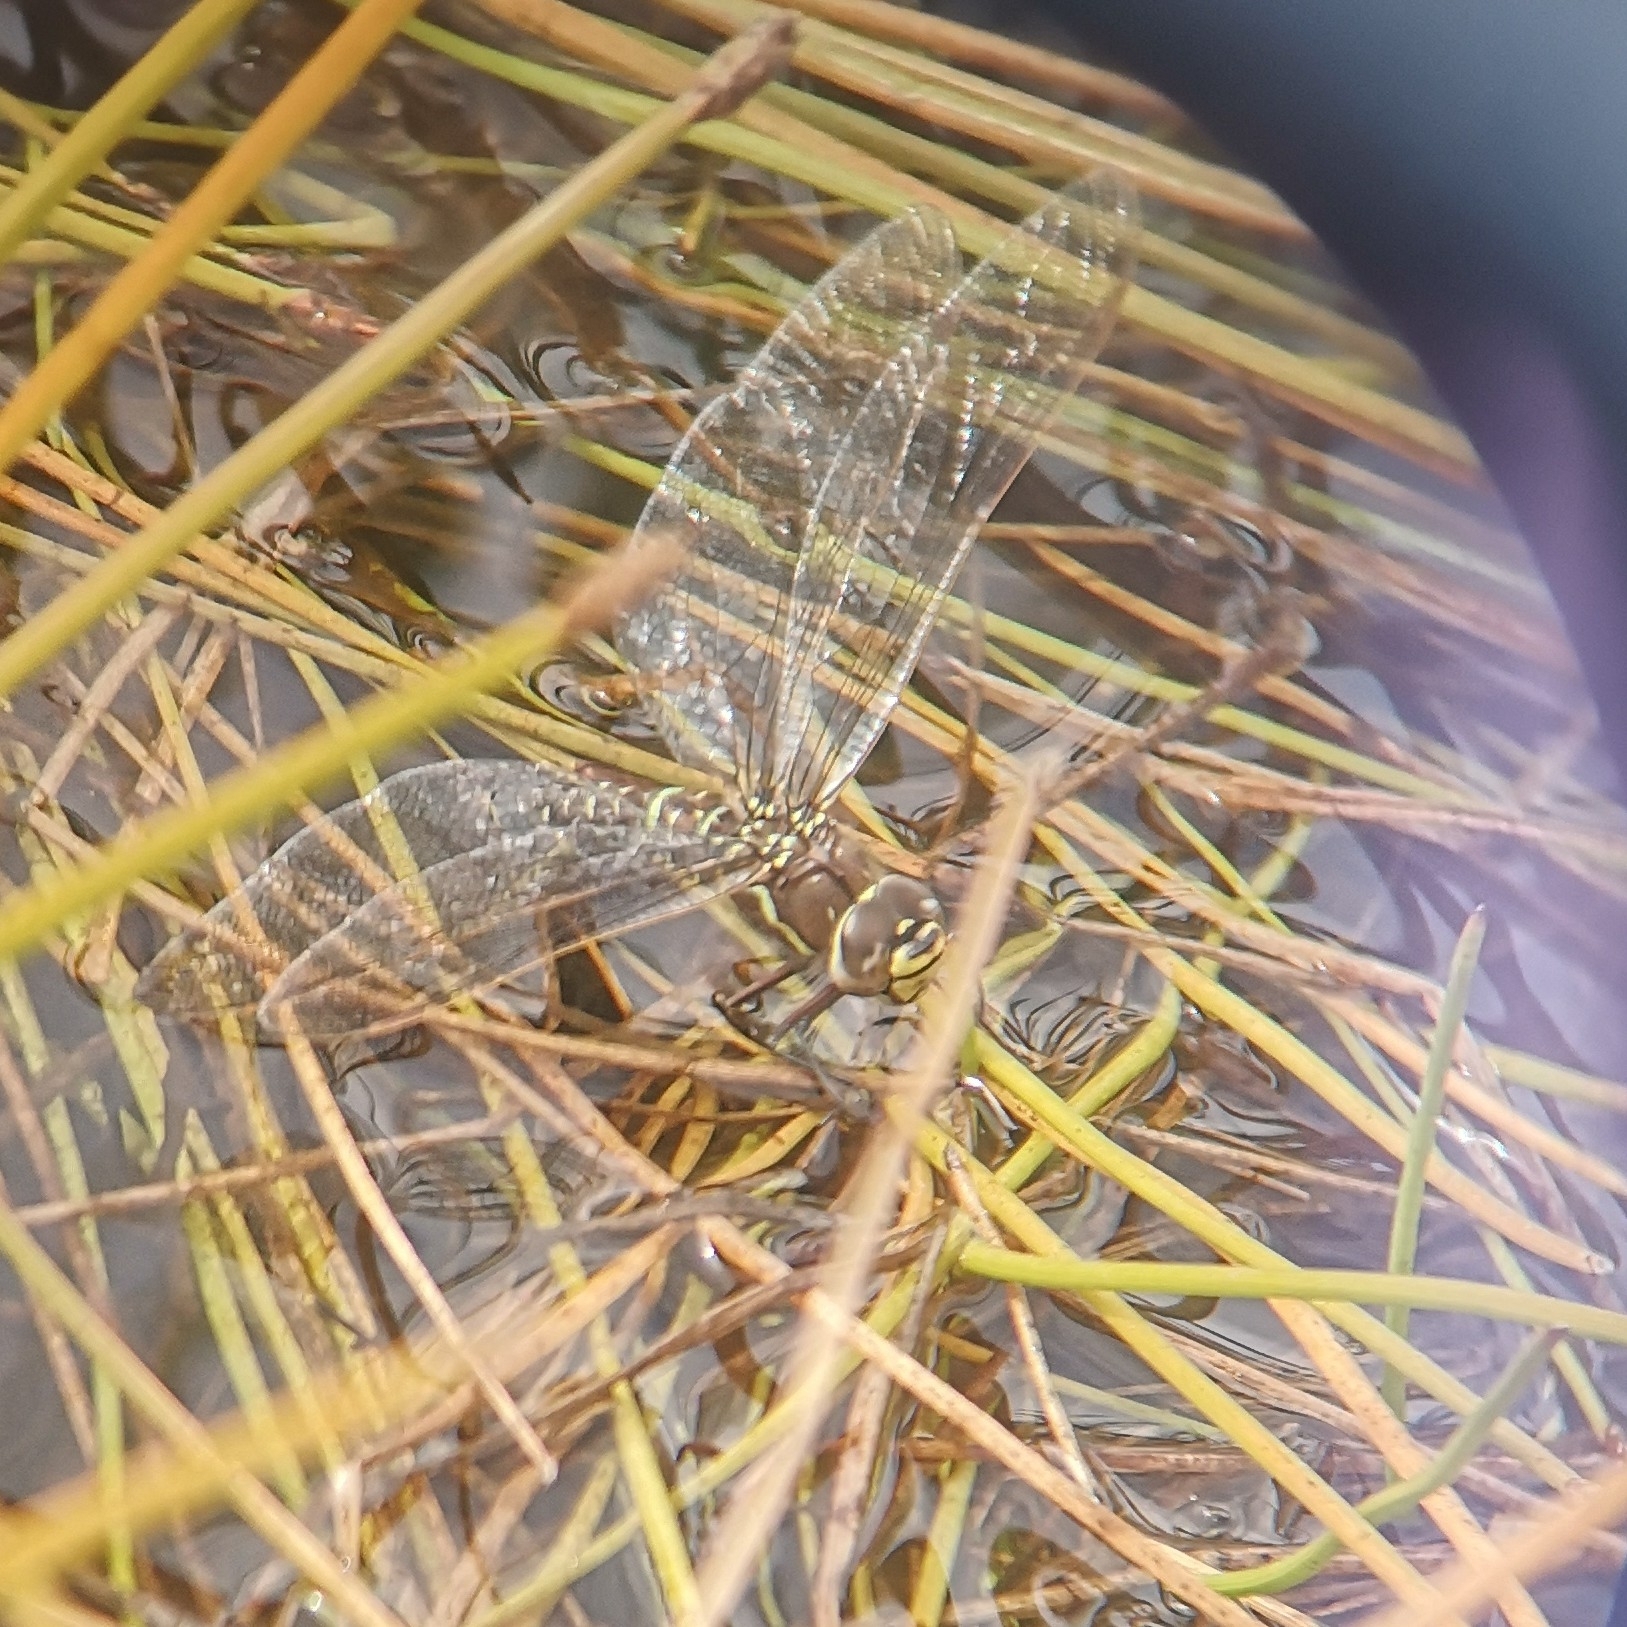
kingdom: Animalia
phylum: Arthropoda
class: Insecta
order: Odonata
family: Aeshnidae
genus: Aeshna
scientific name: Aeshna juncea
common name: Moorland hawker
